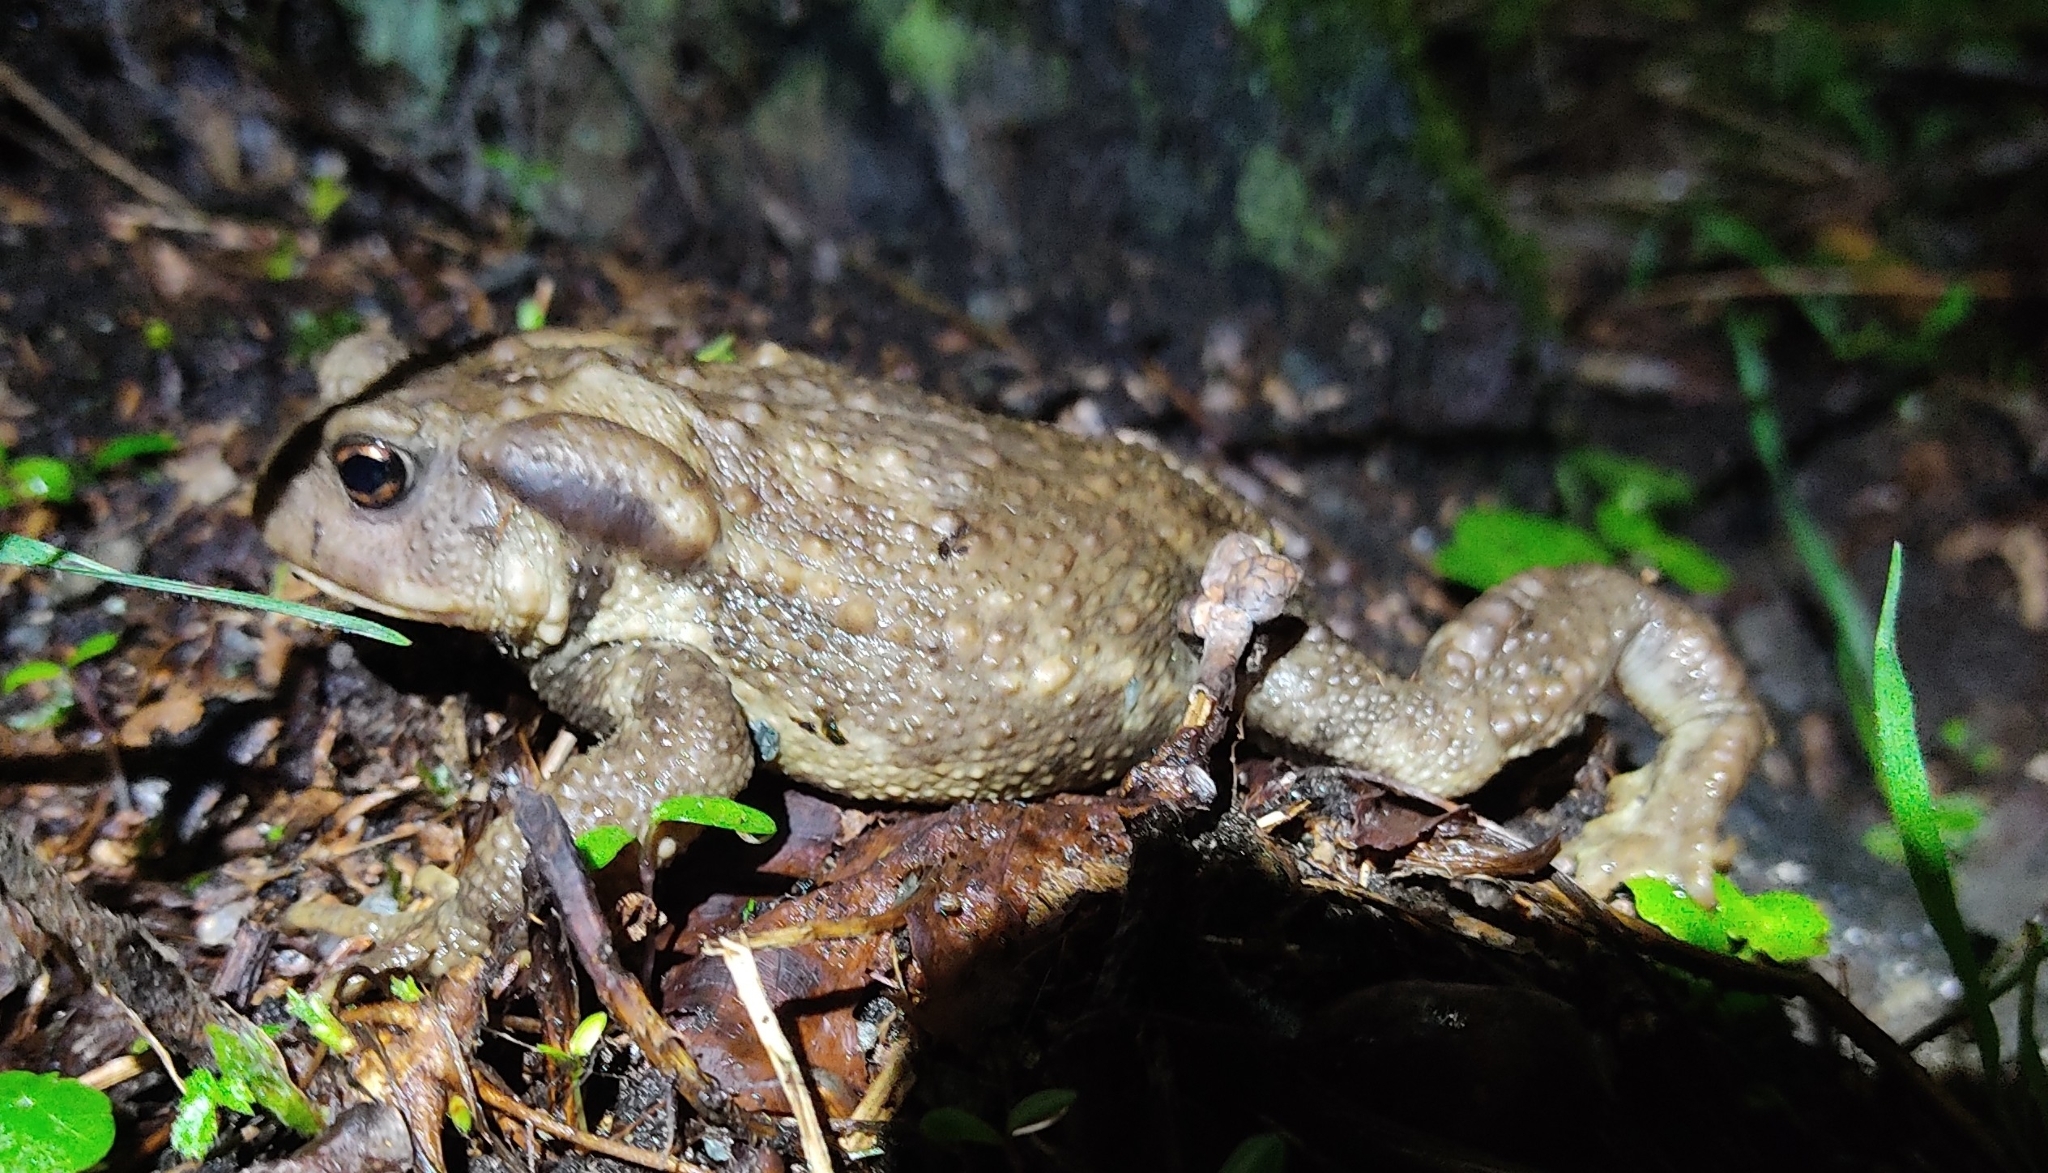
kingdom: Animalia
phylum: Chordata
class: Amphibia
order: Anura
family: Bufonidae
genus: Bufo
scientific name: Bufo spinosus
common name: Western common toad
